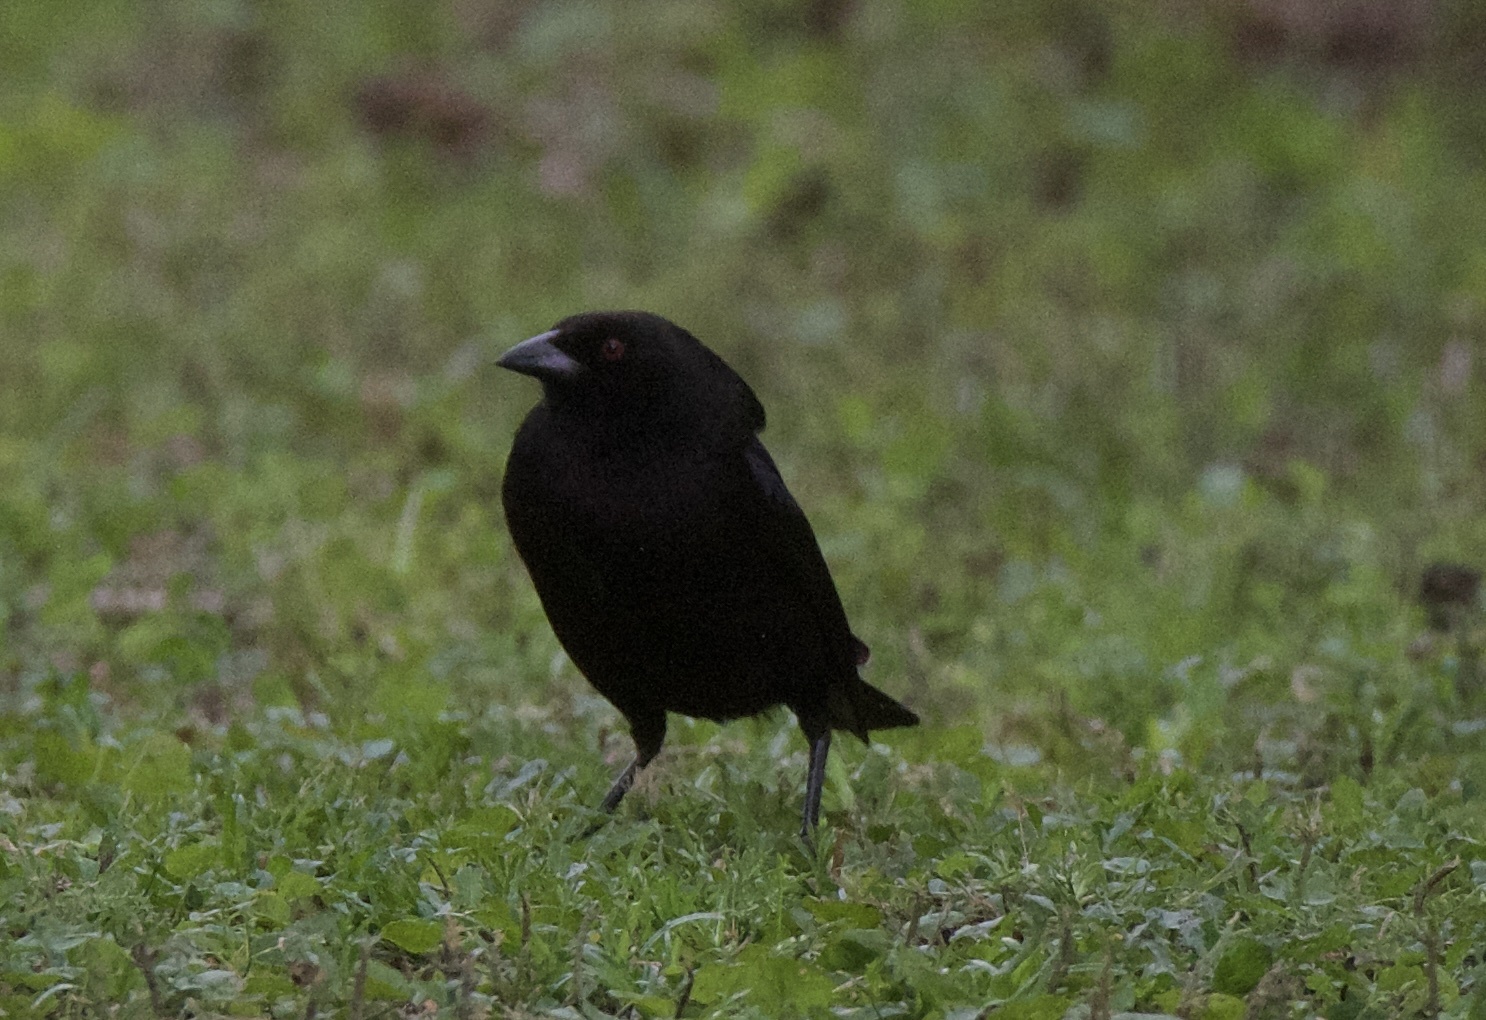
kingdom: Animalia
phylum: Chordata
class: Aves
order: Passeriformes
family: Icteridae
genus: Molothrus
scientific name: Molothrus aeneus
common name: Bronzed cowbird
